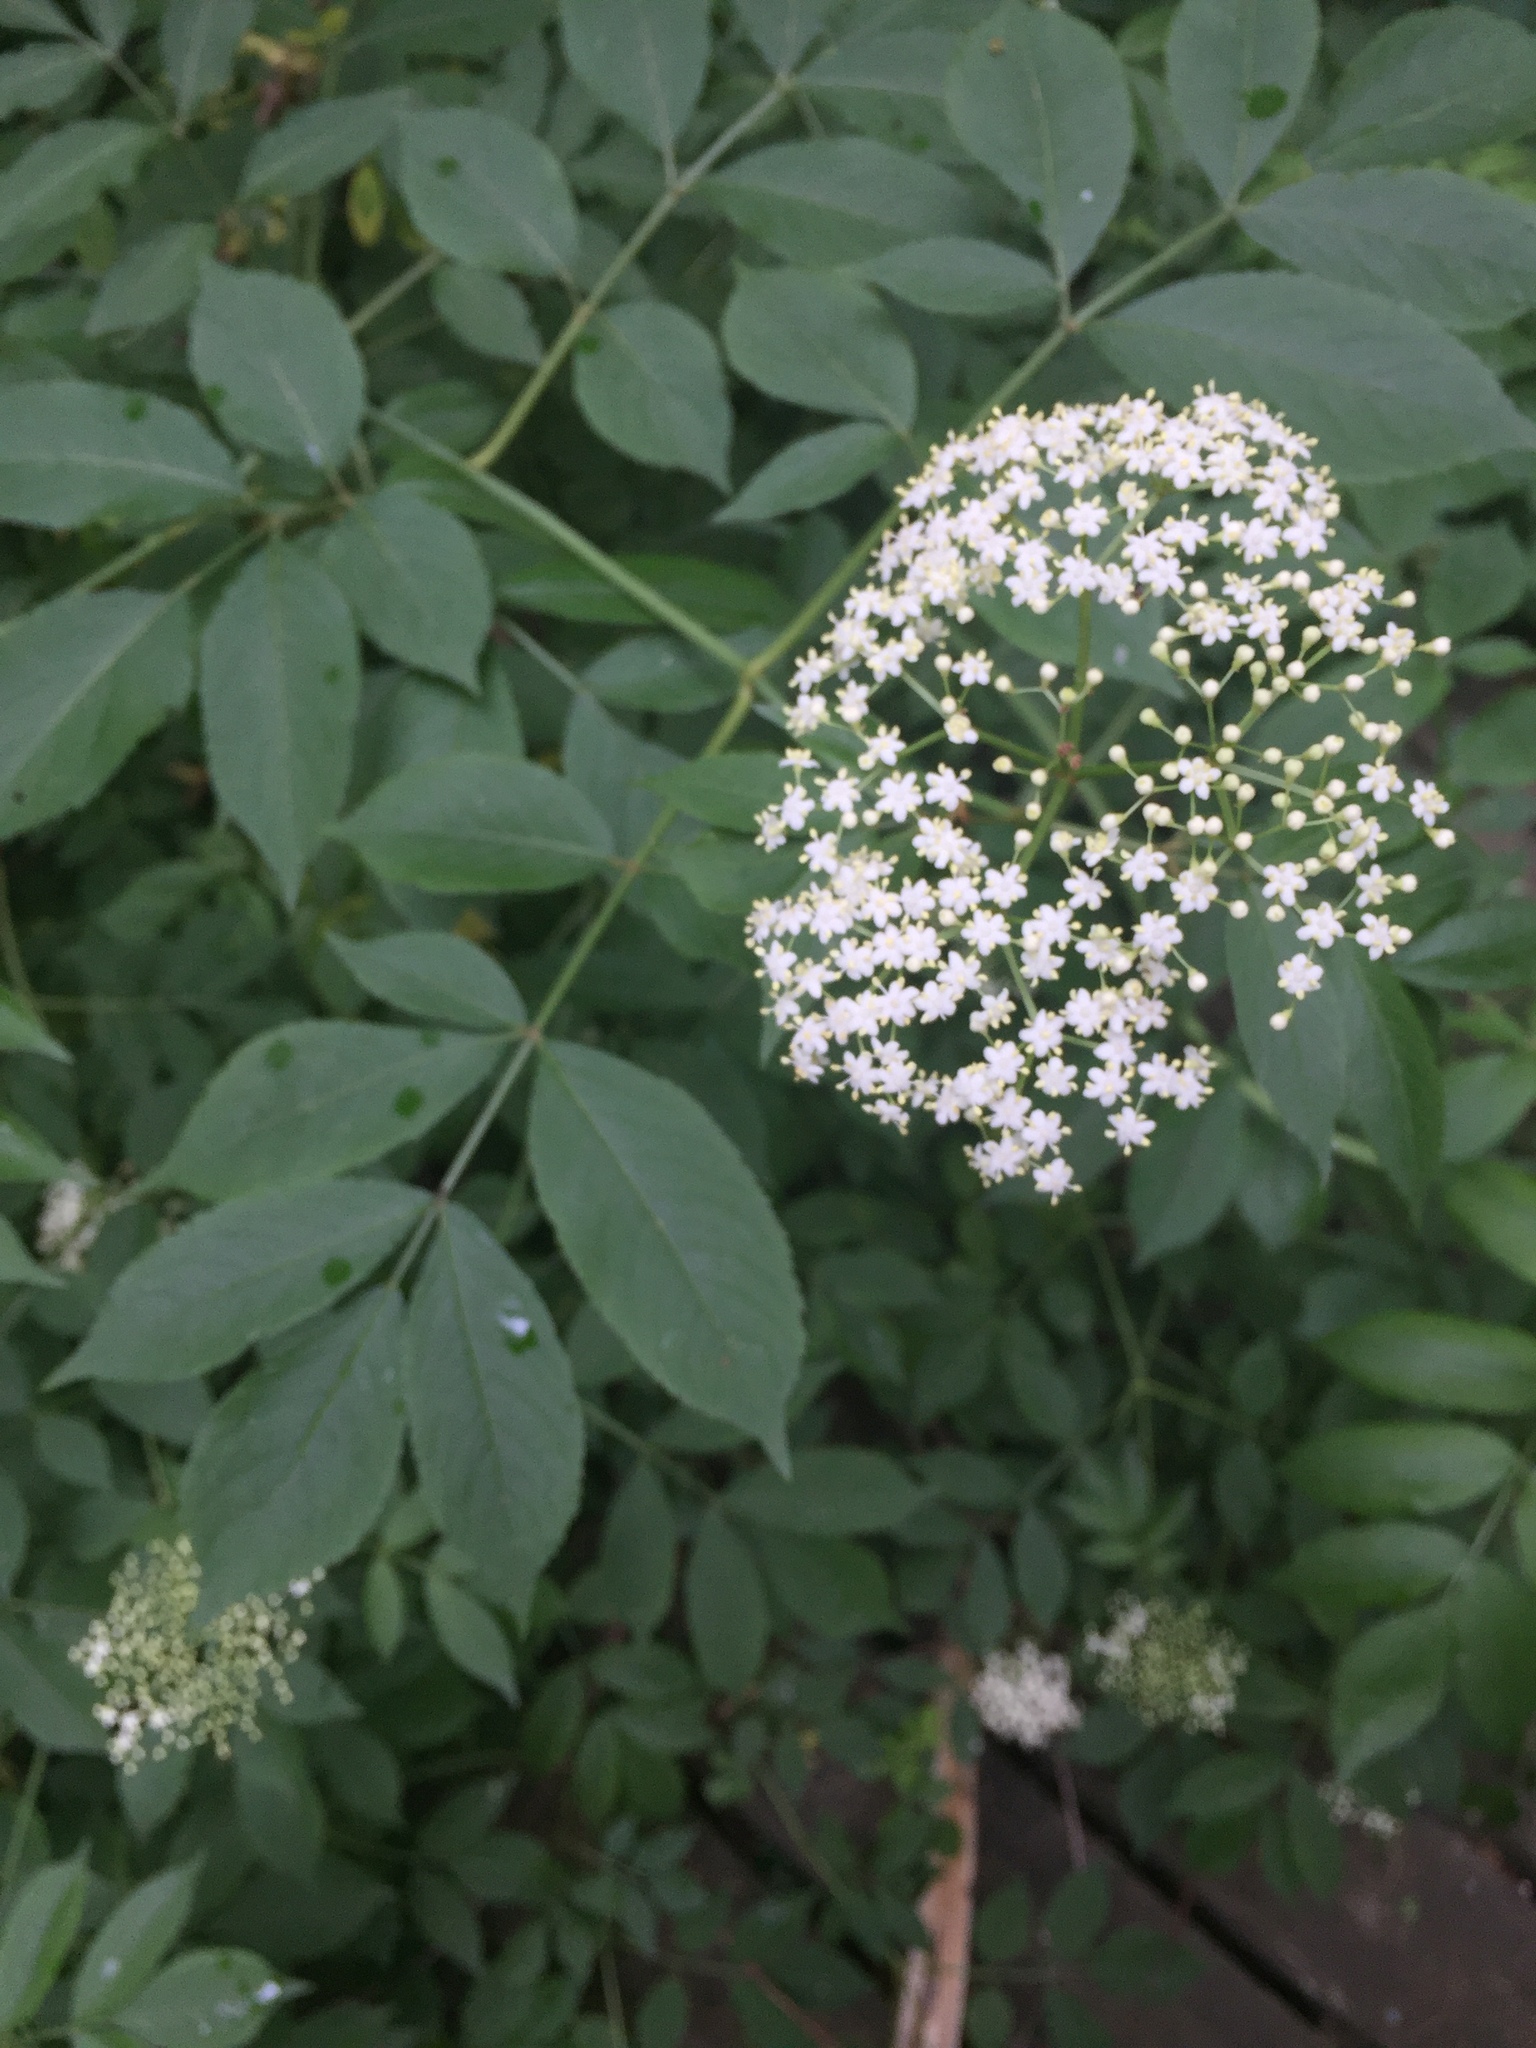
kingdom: Plantae
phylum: Tracheophyta
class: Magnoliopsida
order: Dipsacales
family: Viburnaceae
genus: Sambucus
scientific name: Sambucus canadensis
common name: American elder
